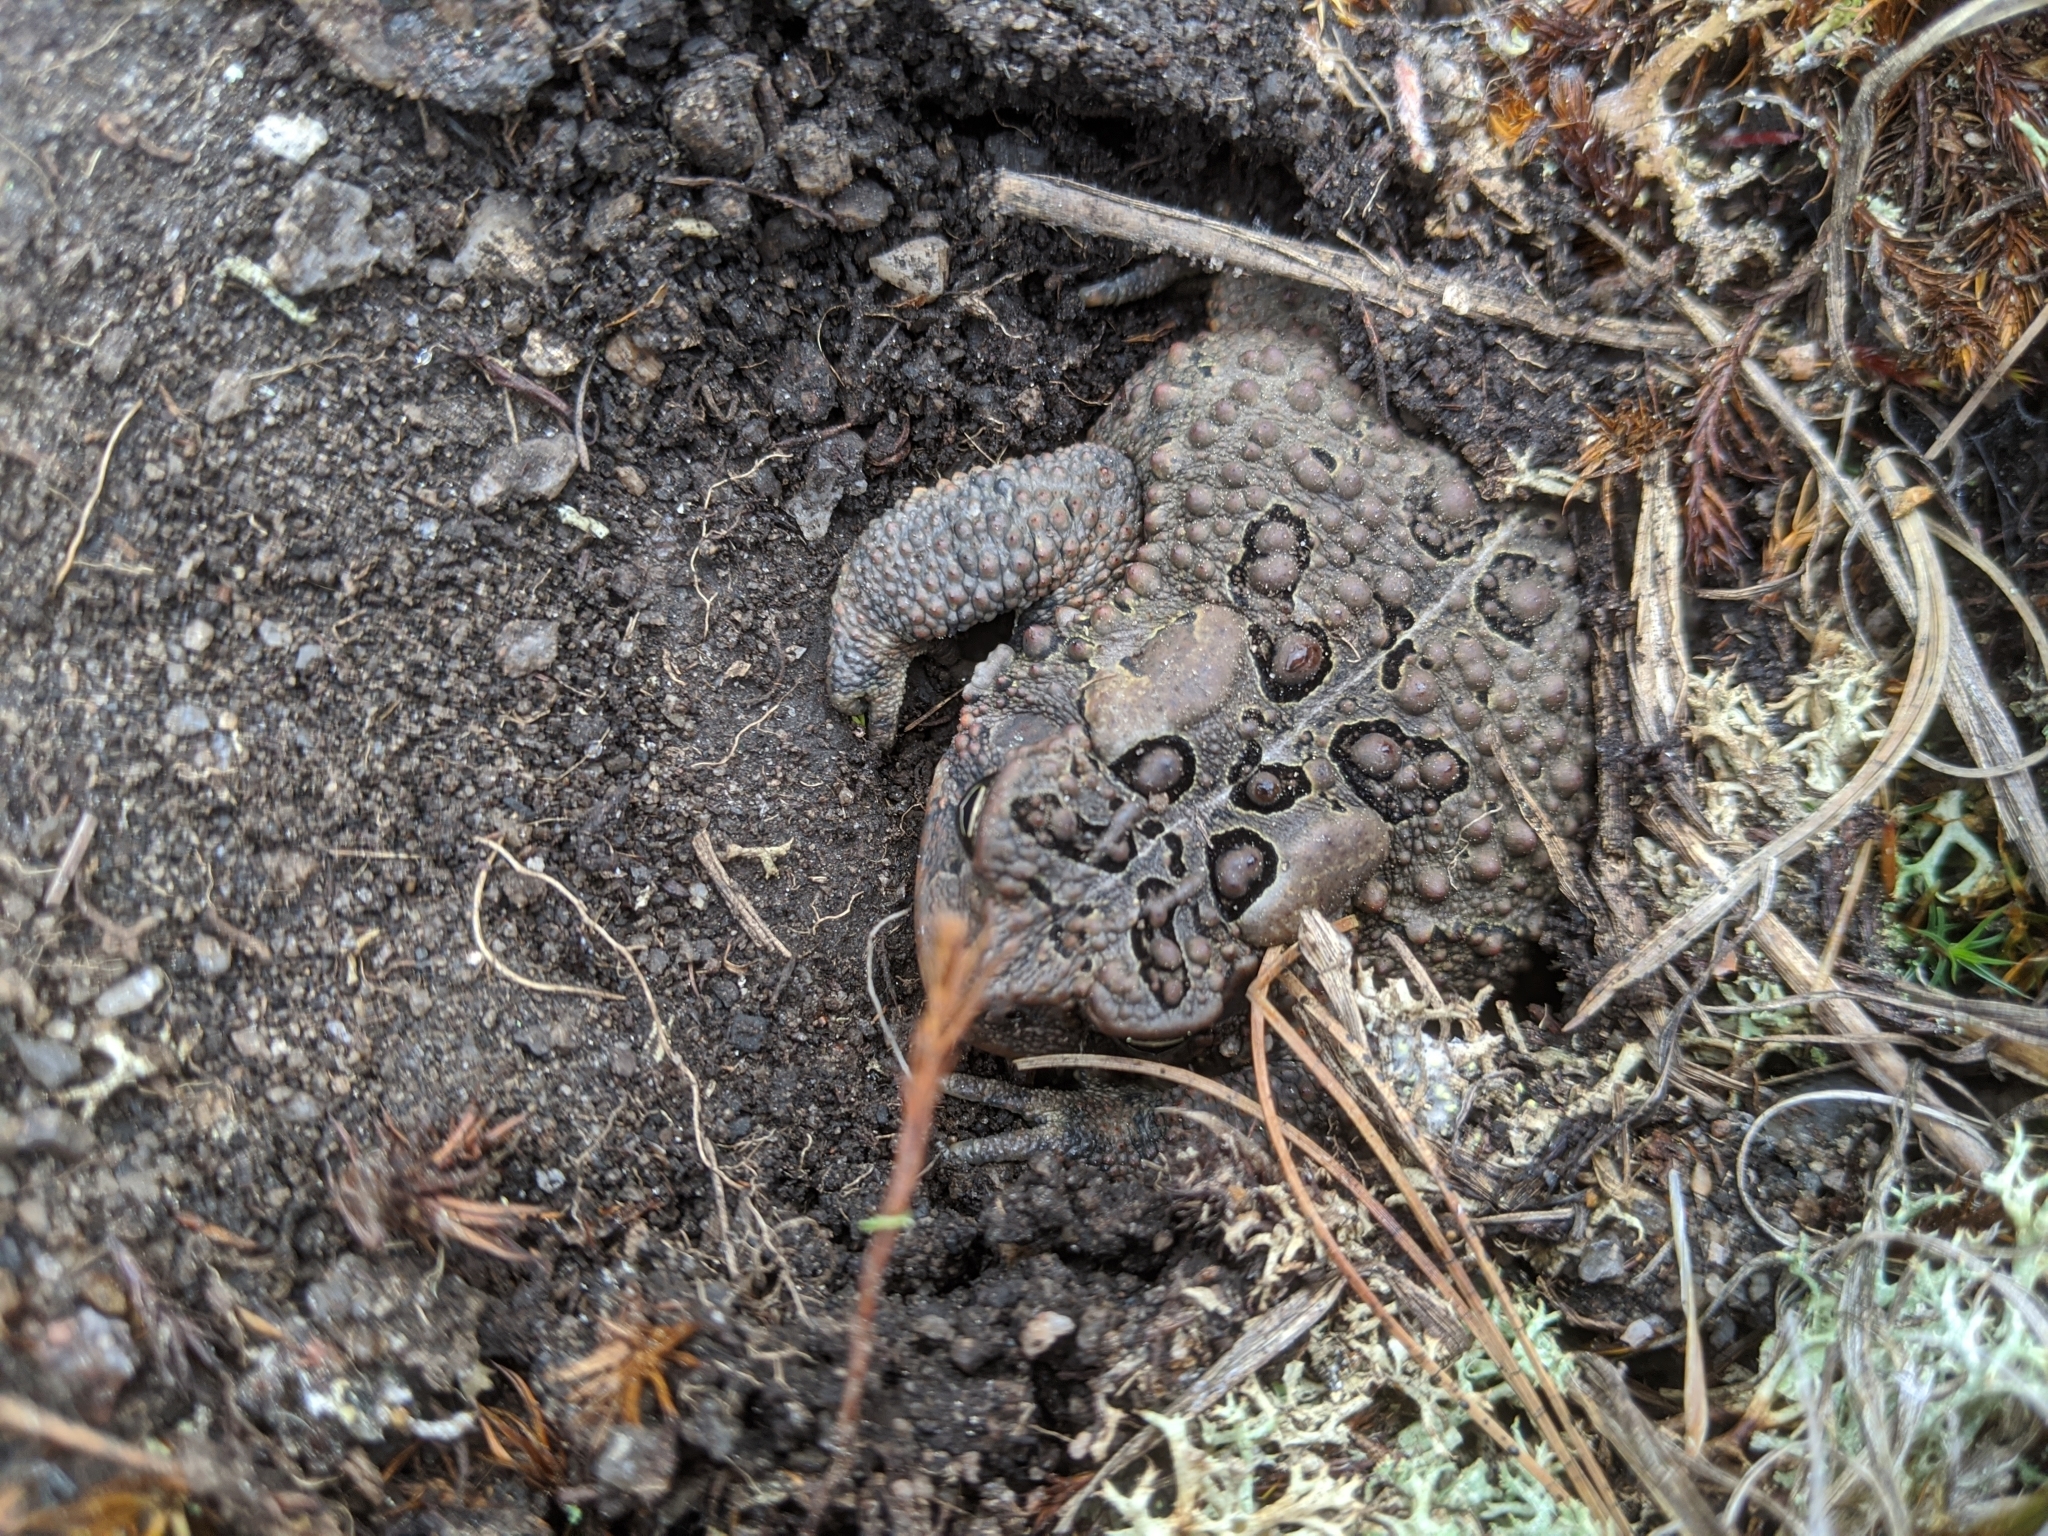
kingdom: Animalia
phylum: Chordata
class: Amphibia
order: Anura
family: Bufonidae
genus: Anaxyrus
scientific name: Anaxyrus americanus
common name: American toad
